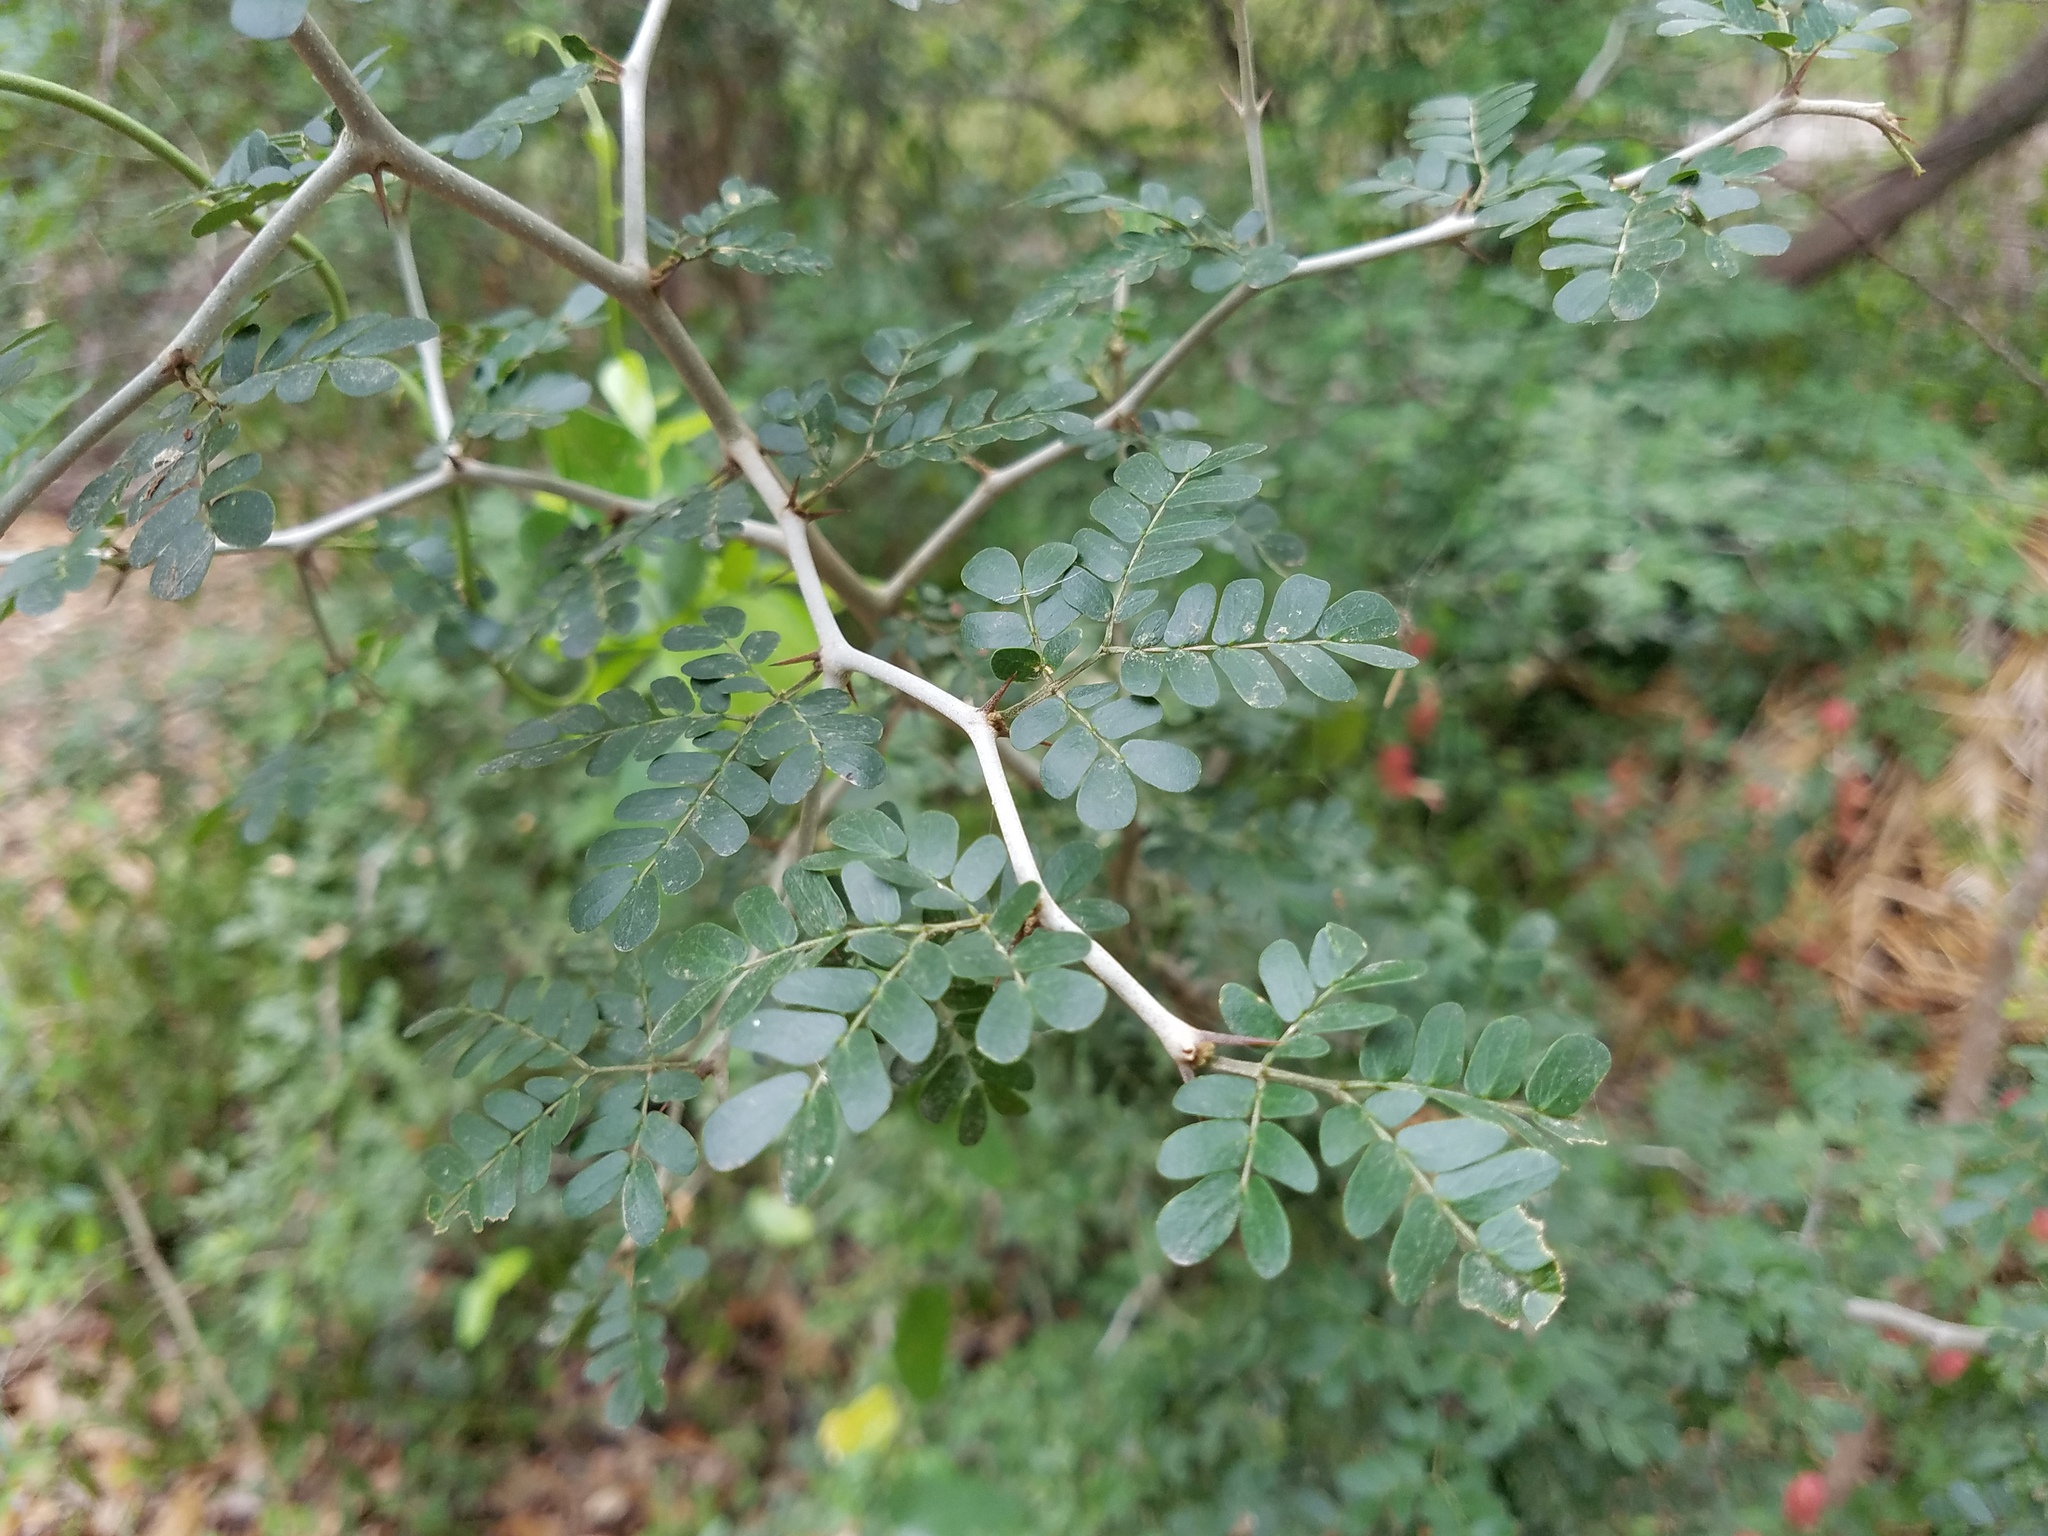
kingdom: Plantae
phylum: Tracheophyta
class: Magnoliopsida
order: Fabales
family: Fabaceae
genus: Ebenopsis
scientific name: Ebenopsis ebano
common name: Ebony blackbead
